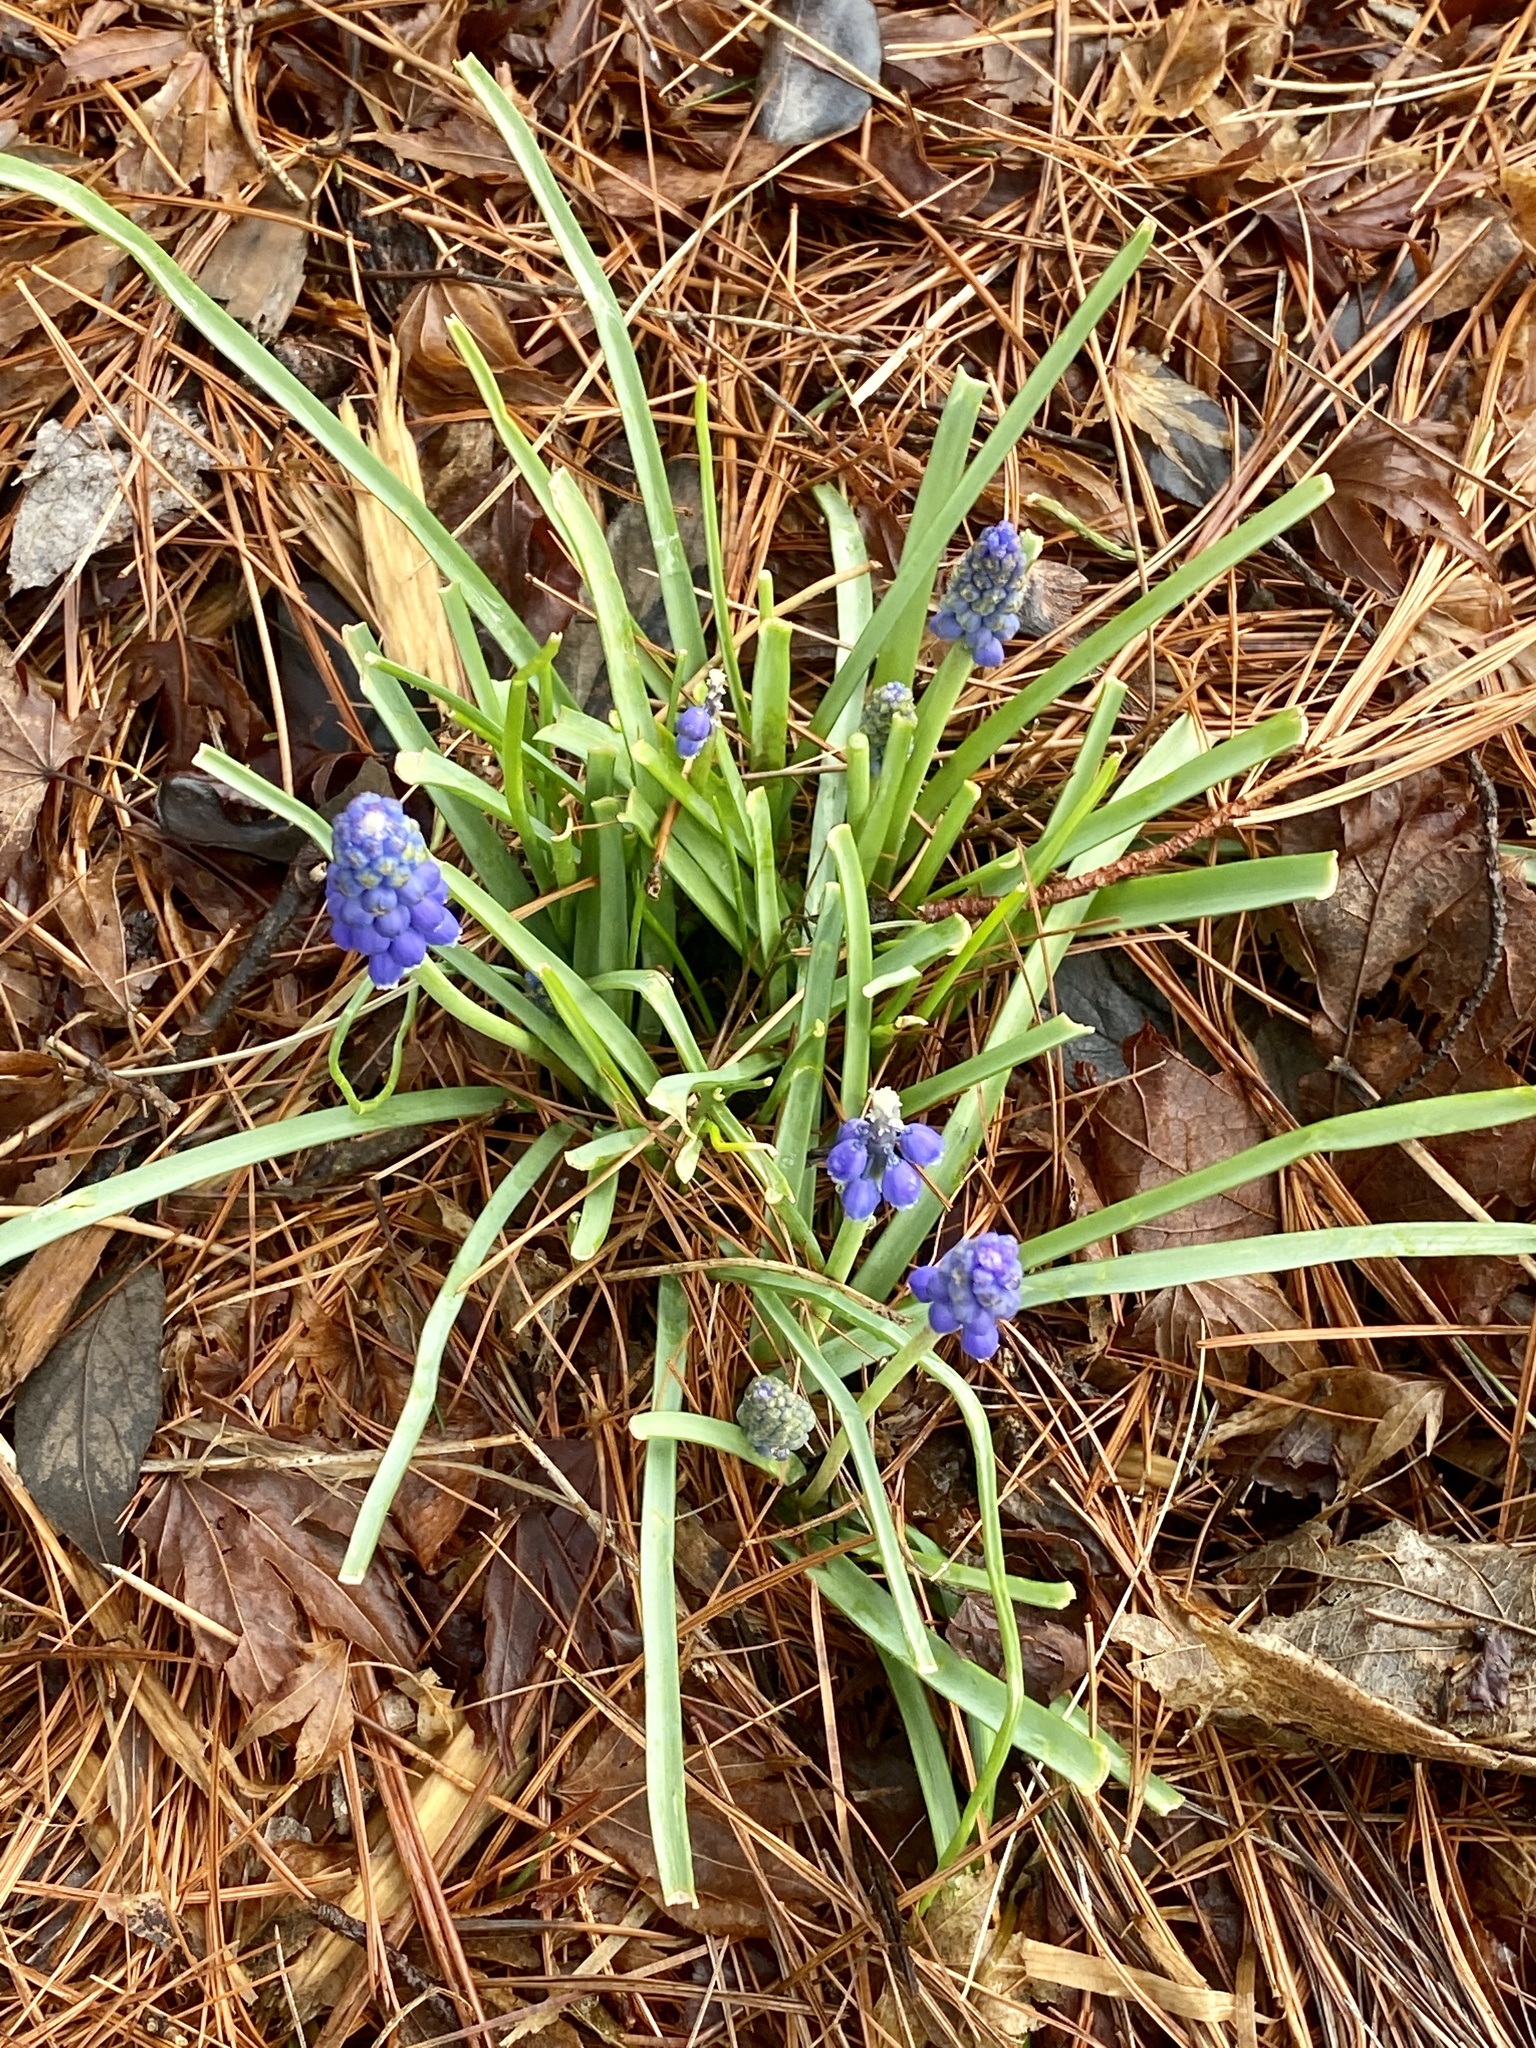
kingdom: Plantae
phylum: Tracheophyta
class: Liliopsida
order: Asparagales
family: Asparagaceae
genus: Muscari
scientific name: Muscari neglectum
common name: Grape-hyacinth
